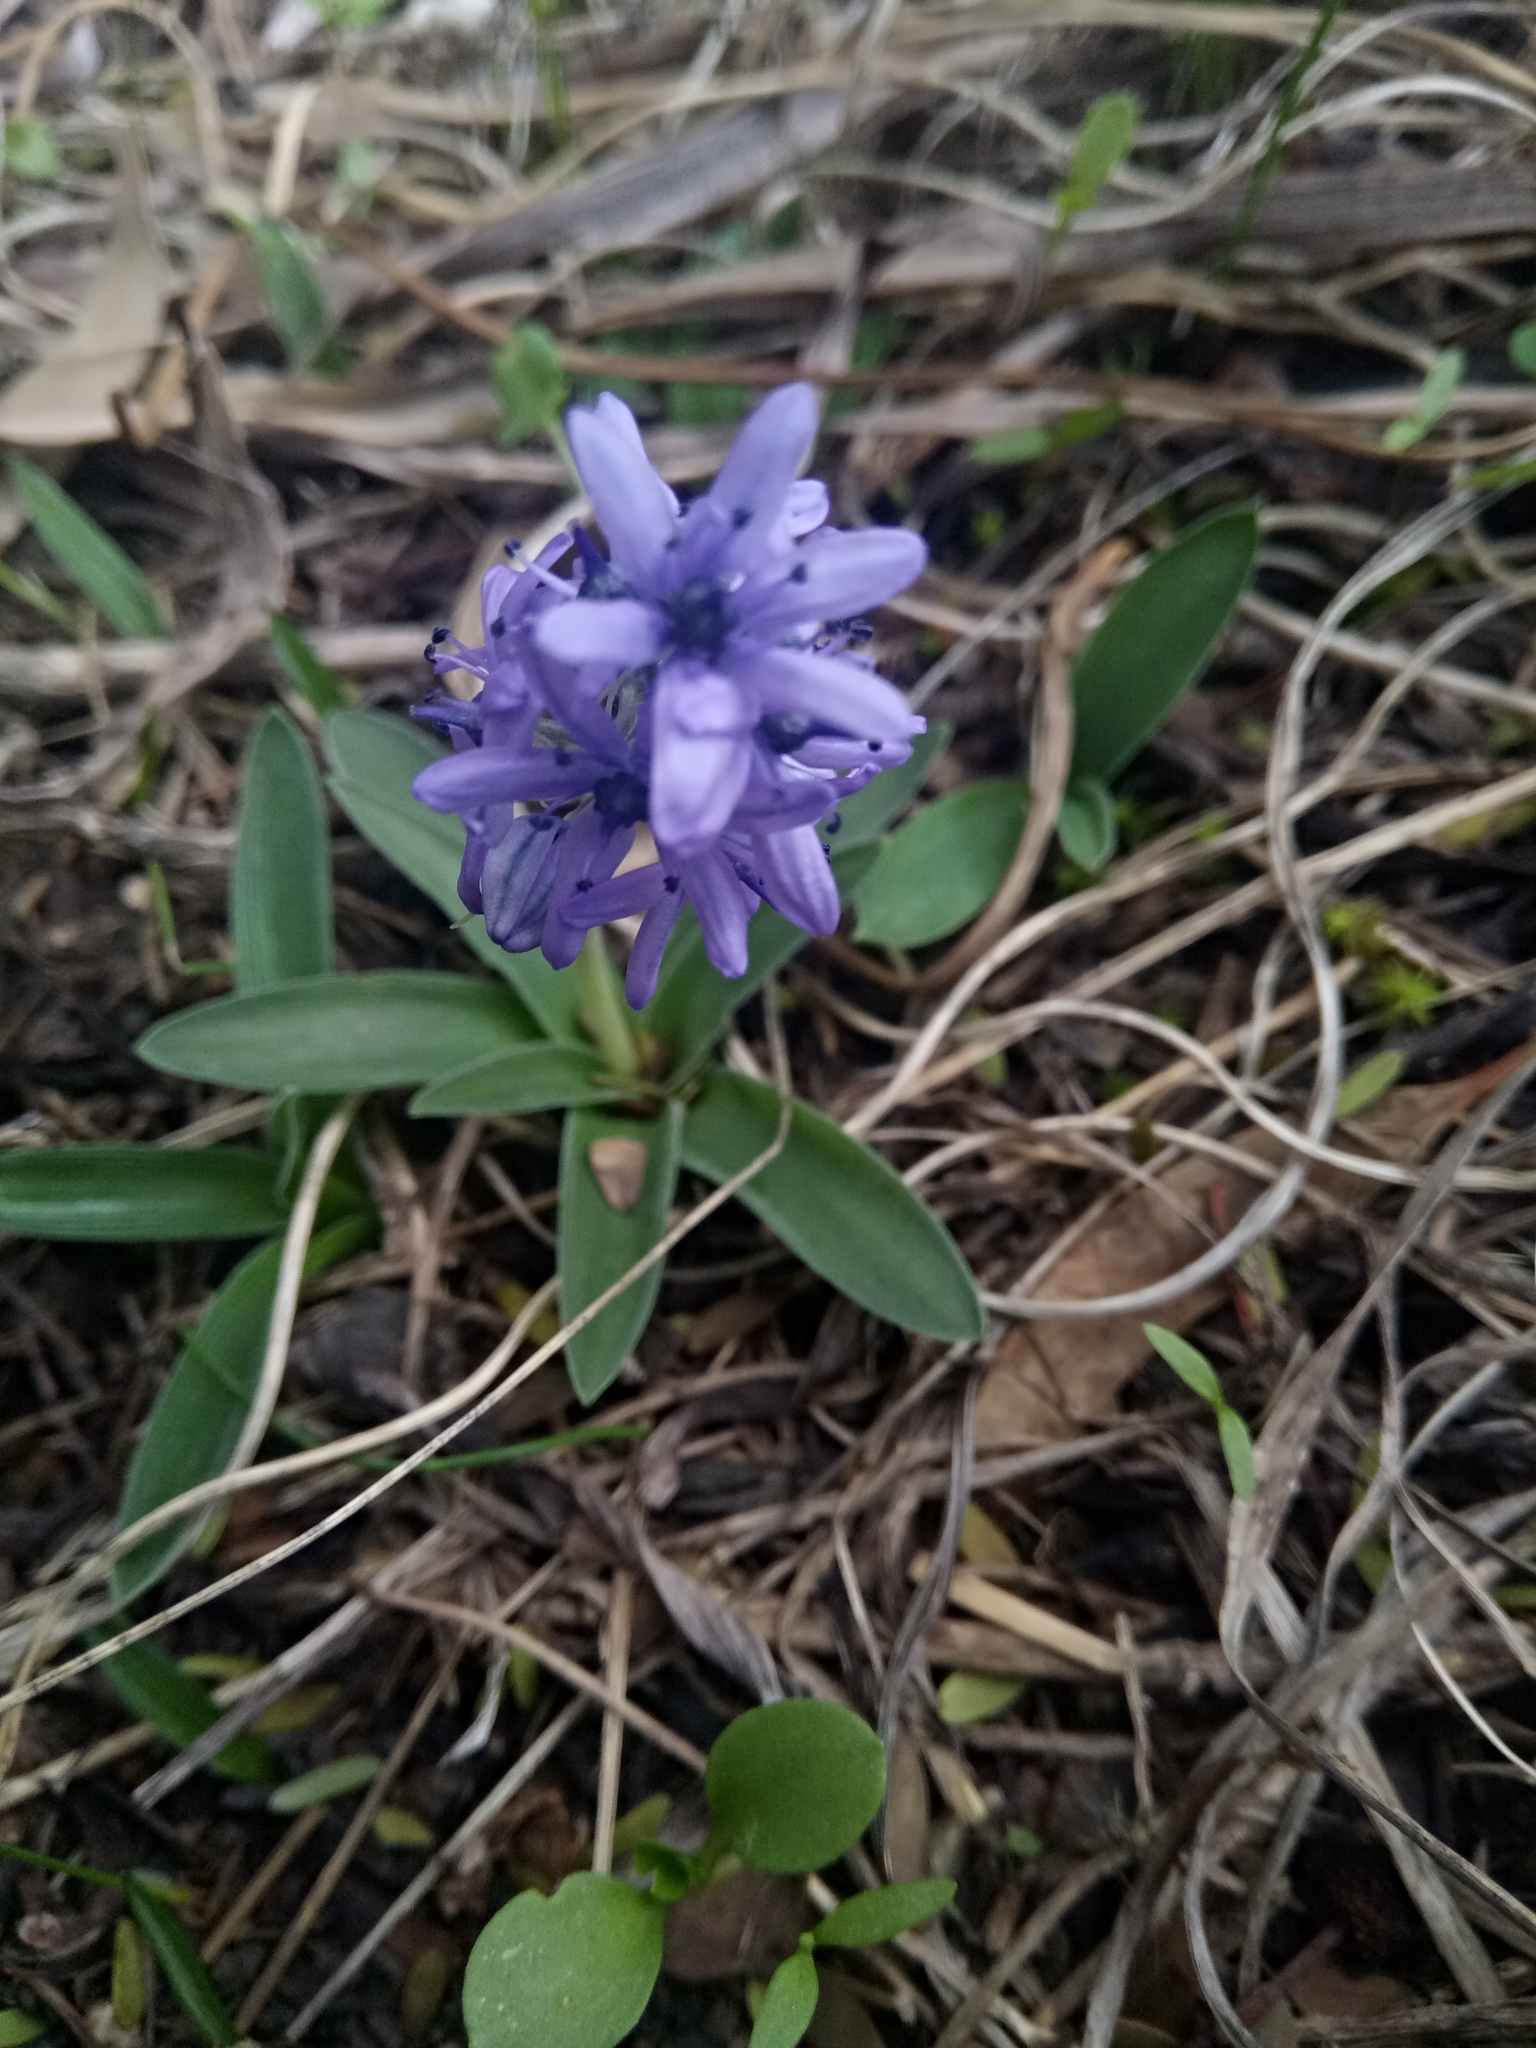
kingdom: Plantae
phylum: Tracheophyta
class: Liliopsida
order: Asparagales
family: Asparagaceae
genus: Hyacinthoides
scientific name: Hyacinthoides lingulata
